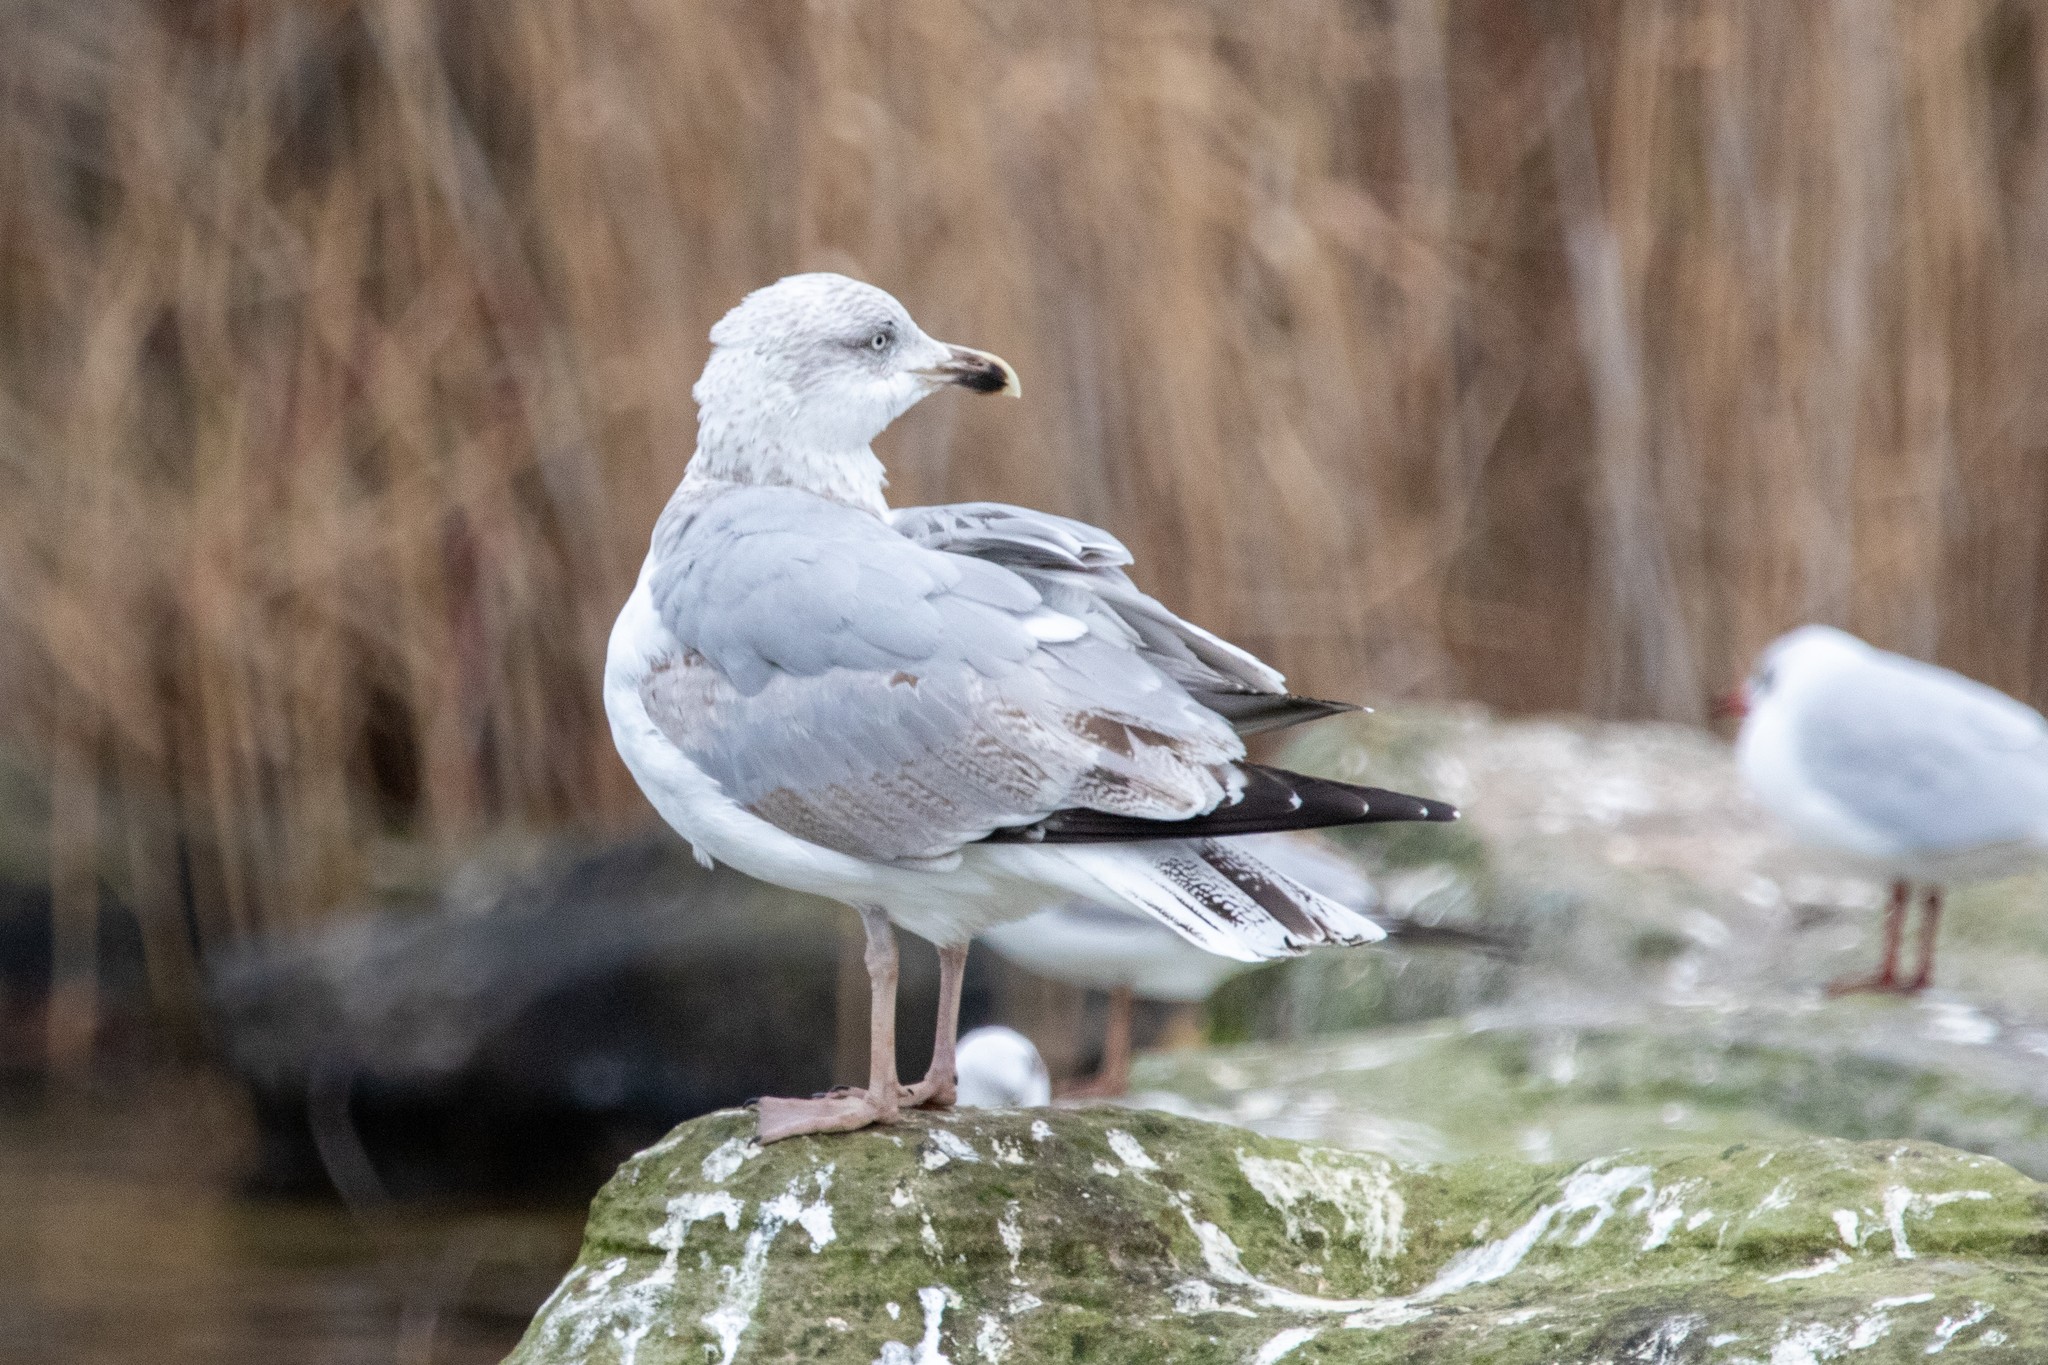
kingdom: Animalia
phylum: Chordata
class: Aves
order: Charadriiformes
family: Laridae
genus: Larus
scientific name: Larus argentatus
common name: Herring gull
